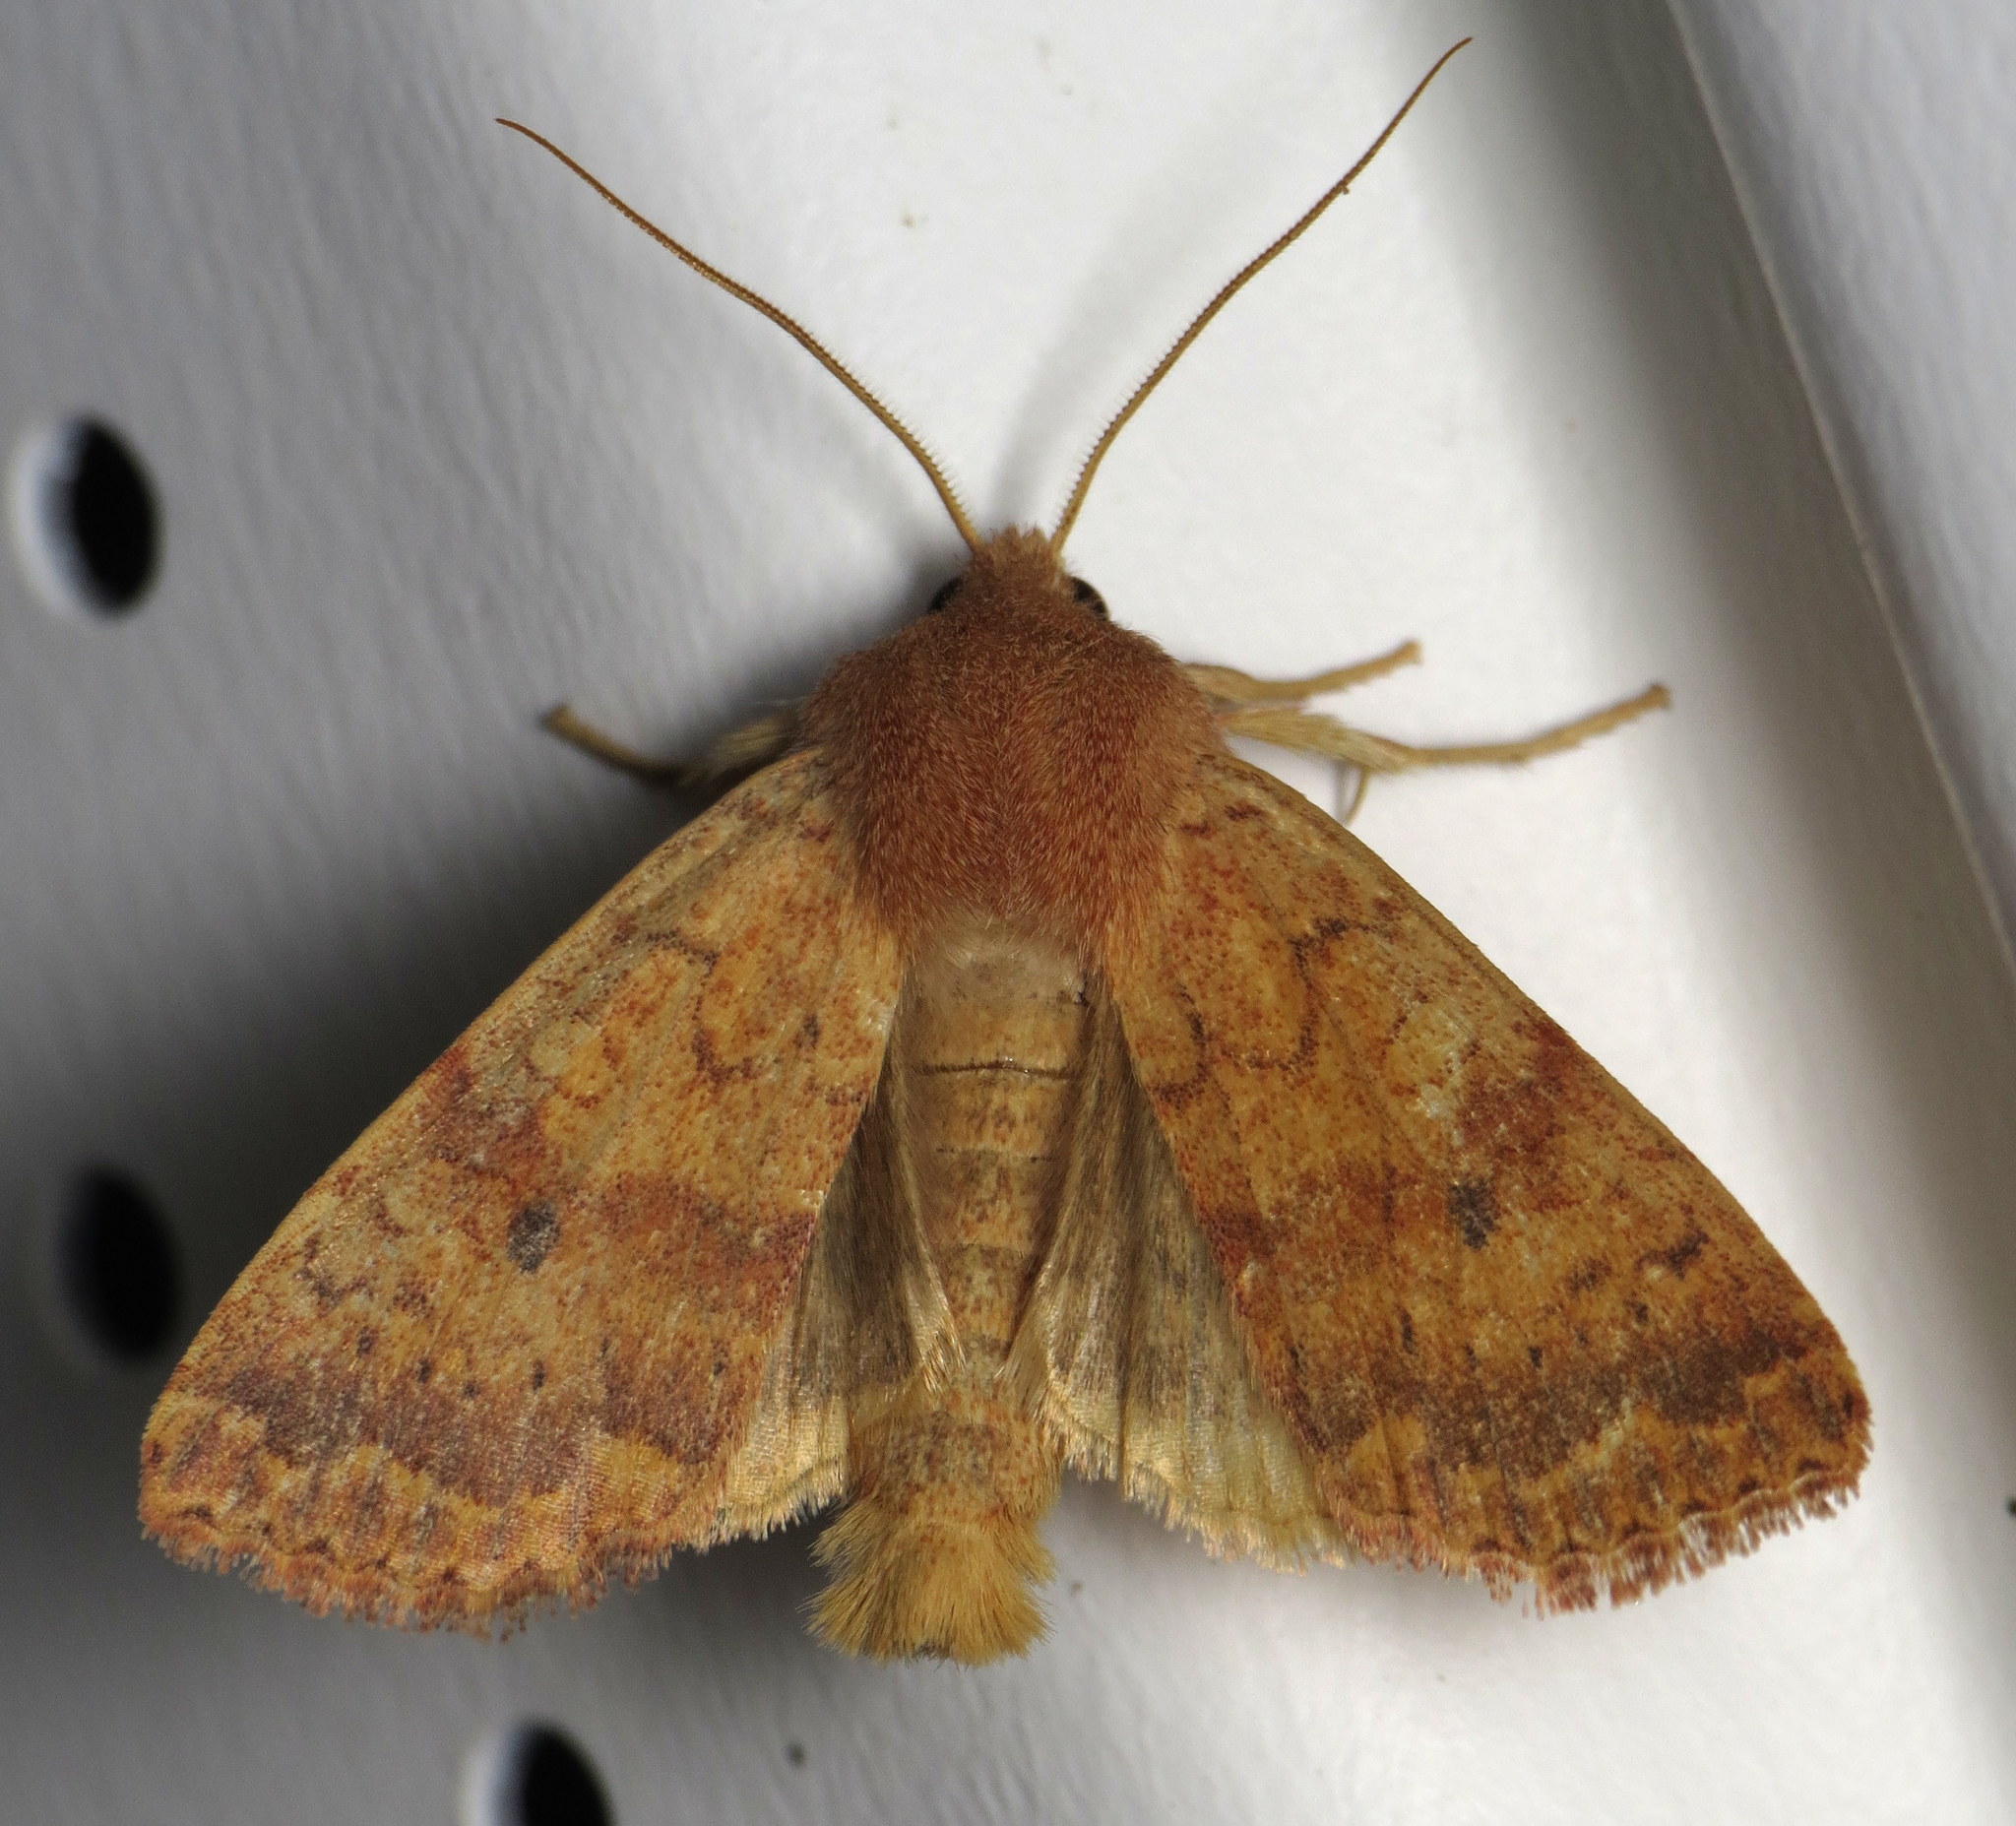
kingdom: Animalia
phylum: Arthropoda
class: Insecta
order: Lepidoptera
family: Noctuidae
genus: Agrochola
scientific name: Agrochola bicolorago
